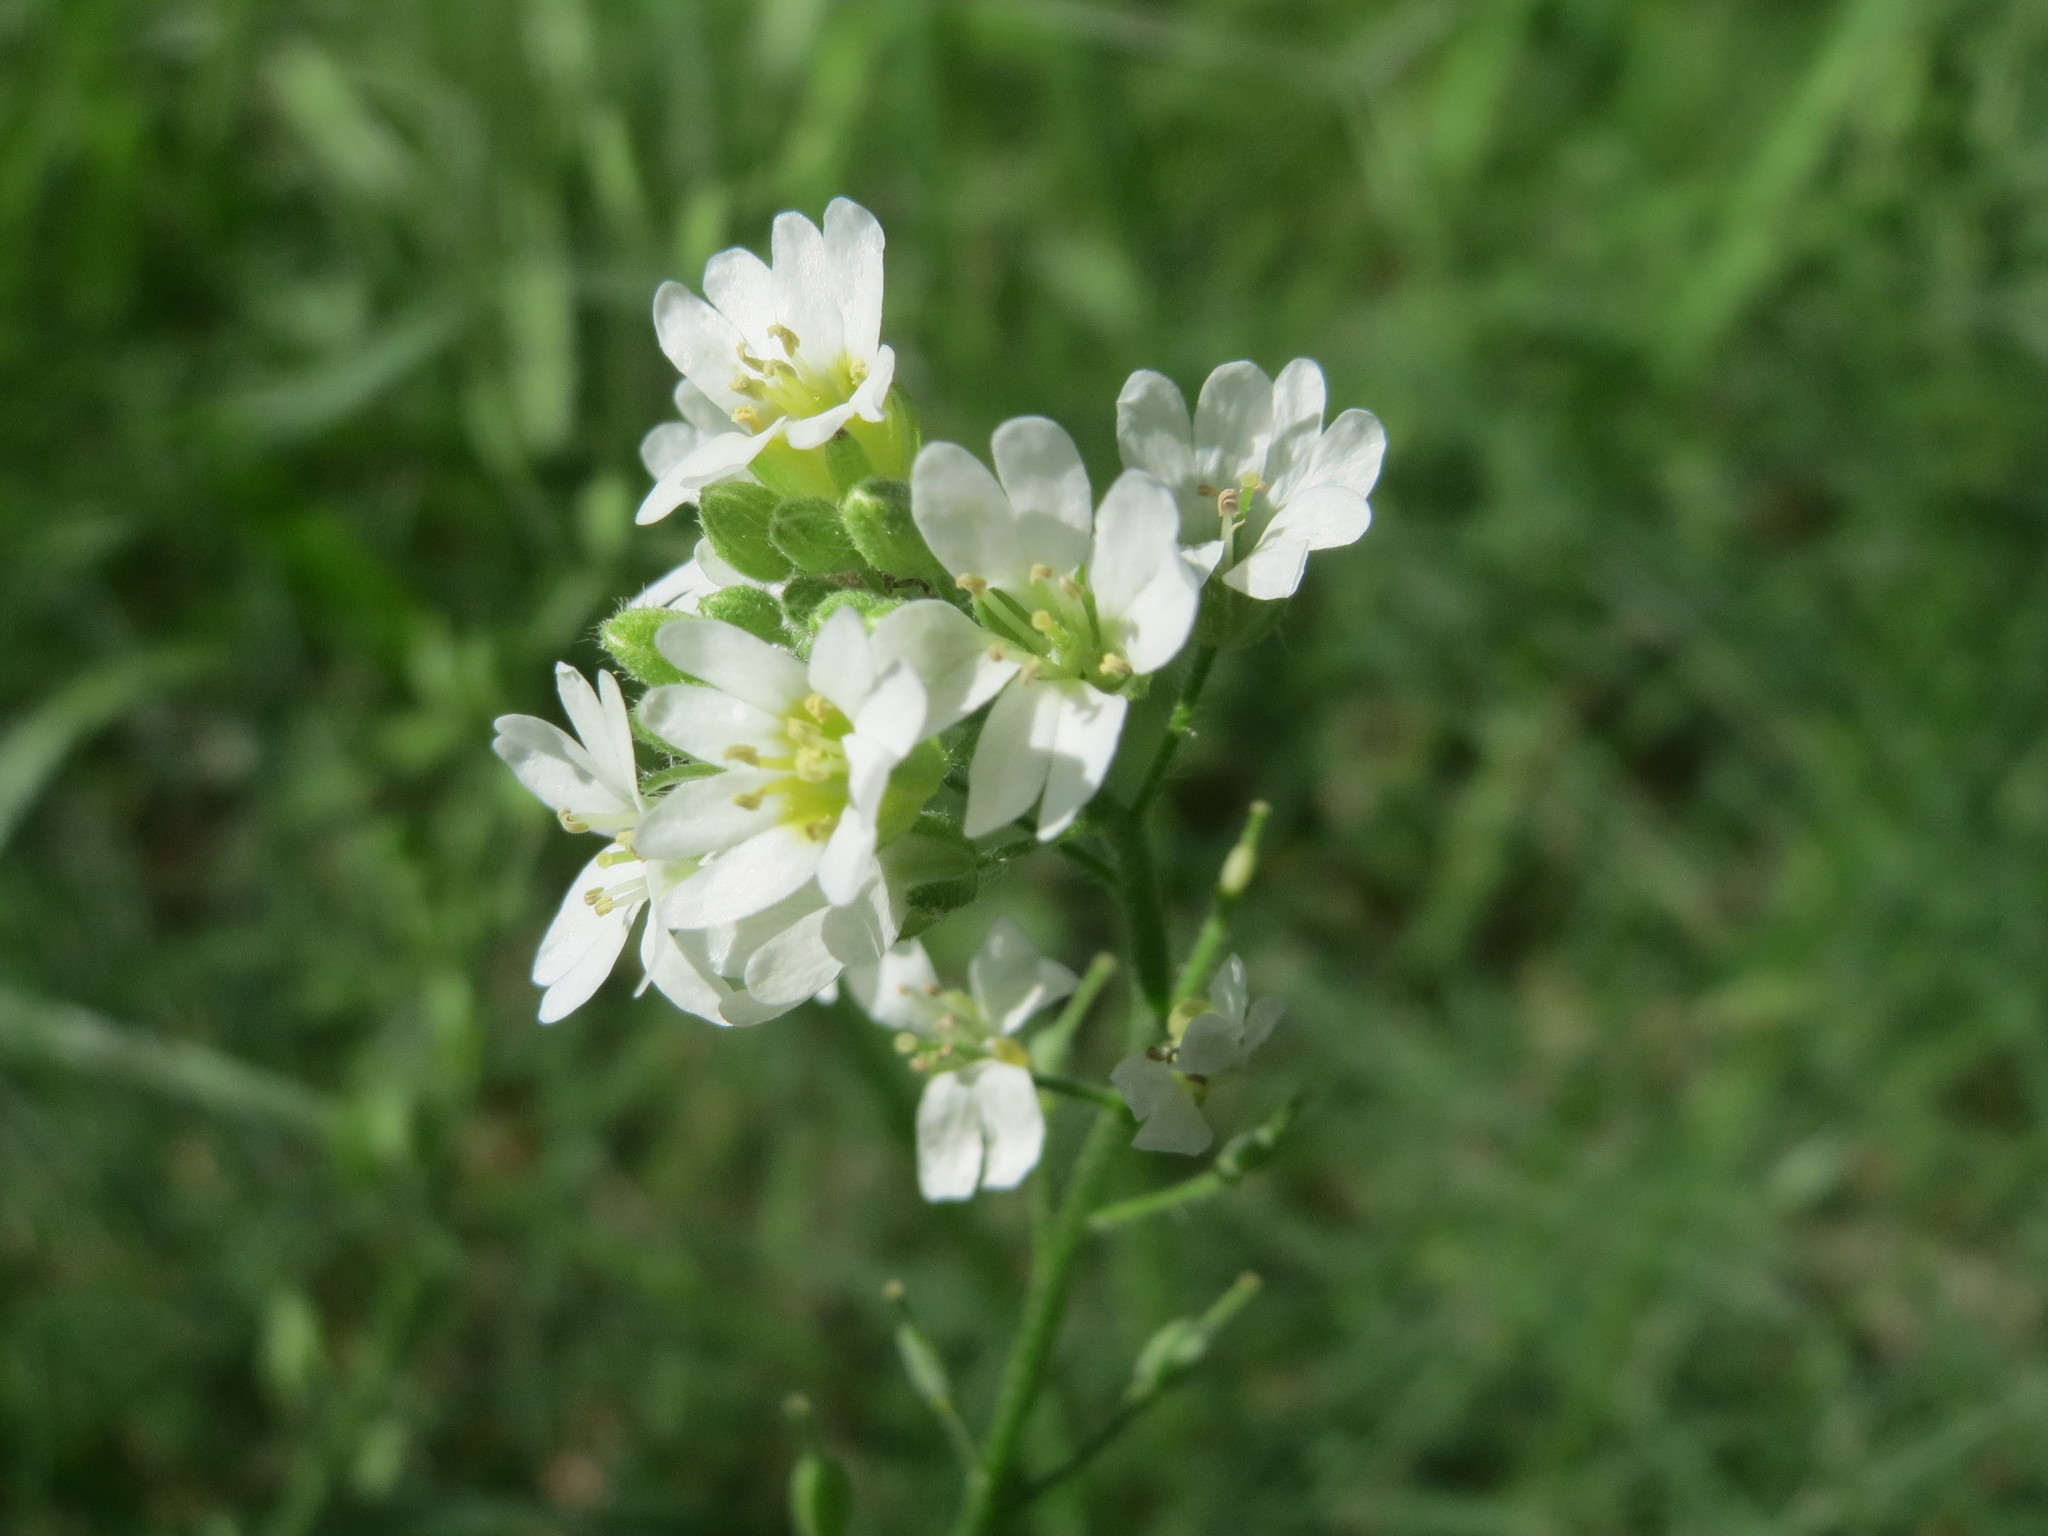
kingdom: Plantae
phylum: Tracheophyta
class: Magnoliopsida
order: Brassicales
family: Brassicaceae
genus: Berteroa
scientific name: Berteroa incana
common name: Hoary alison
